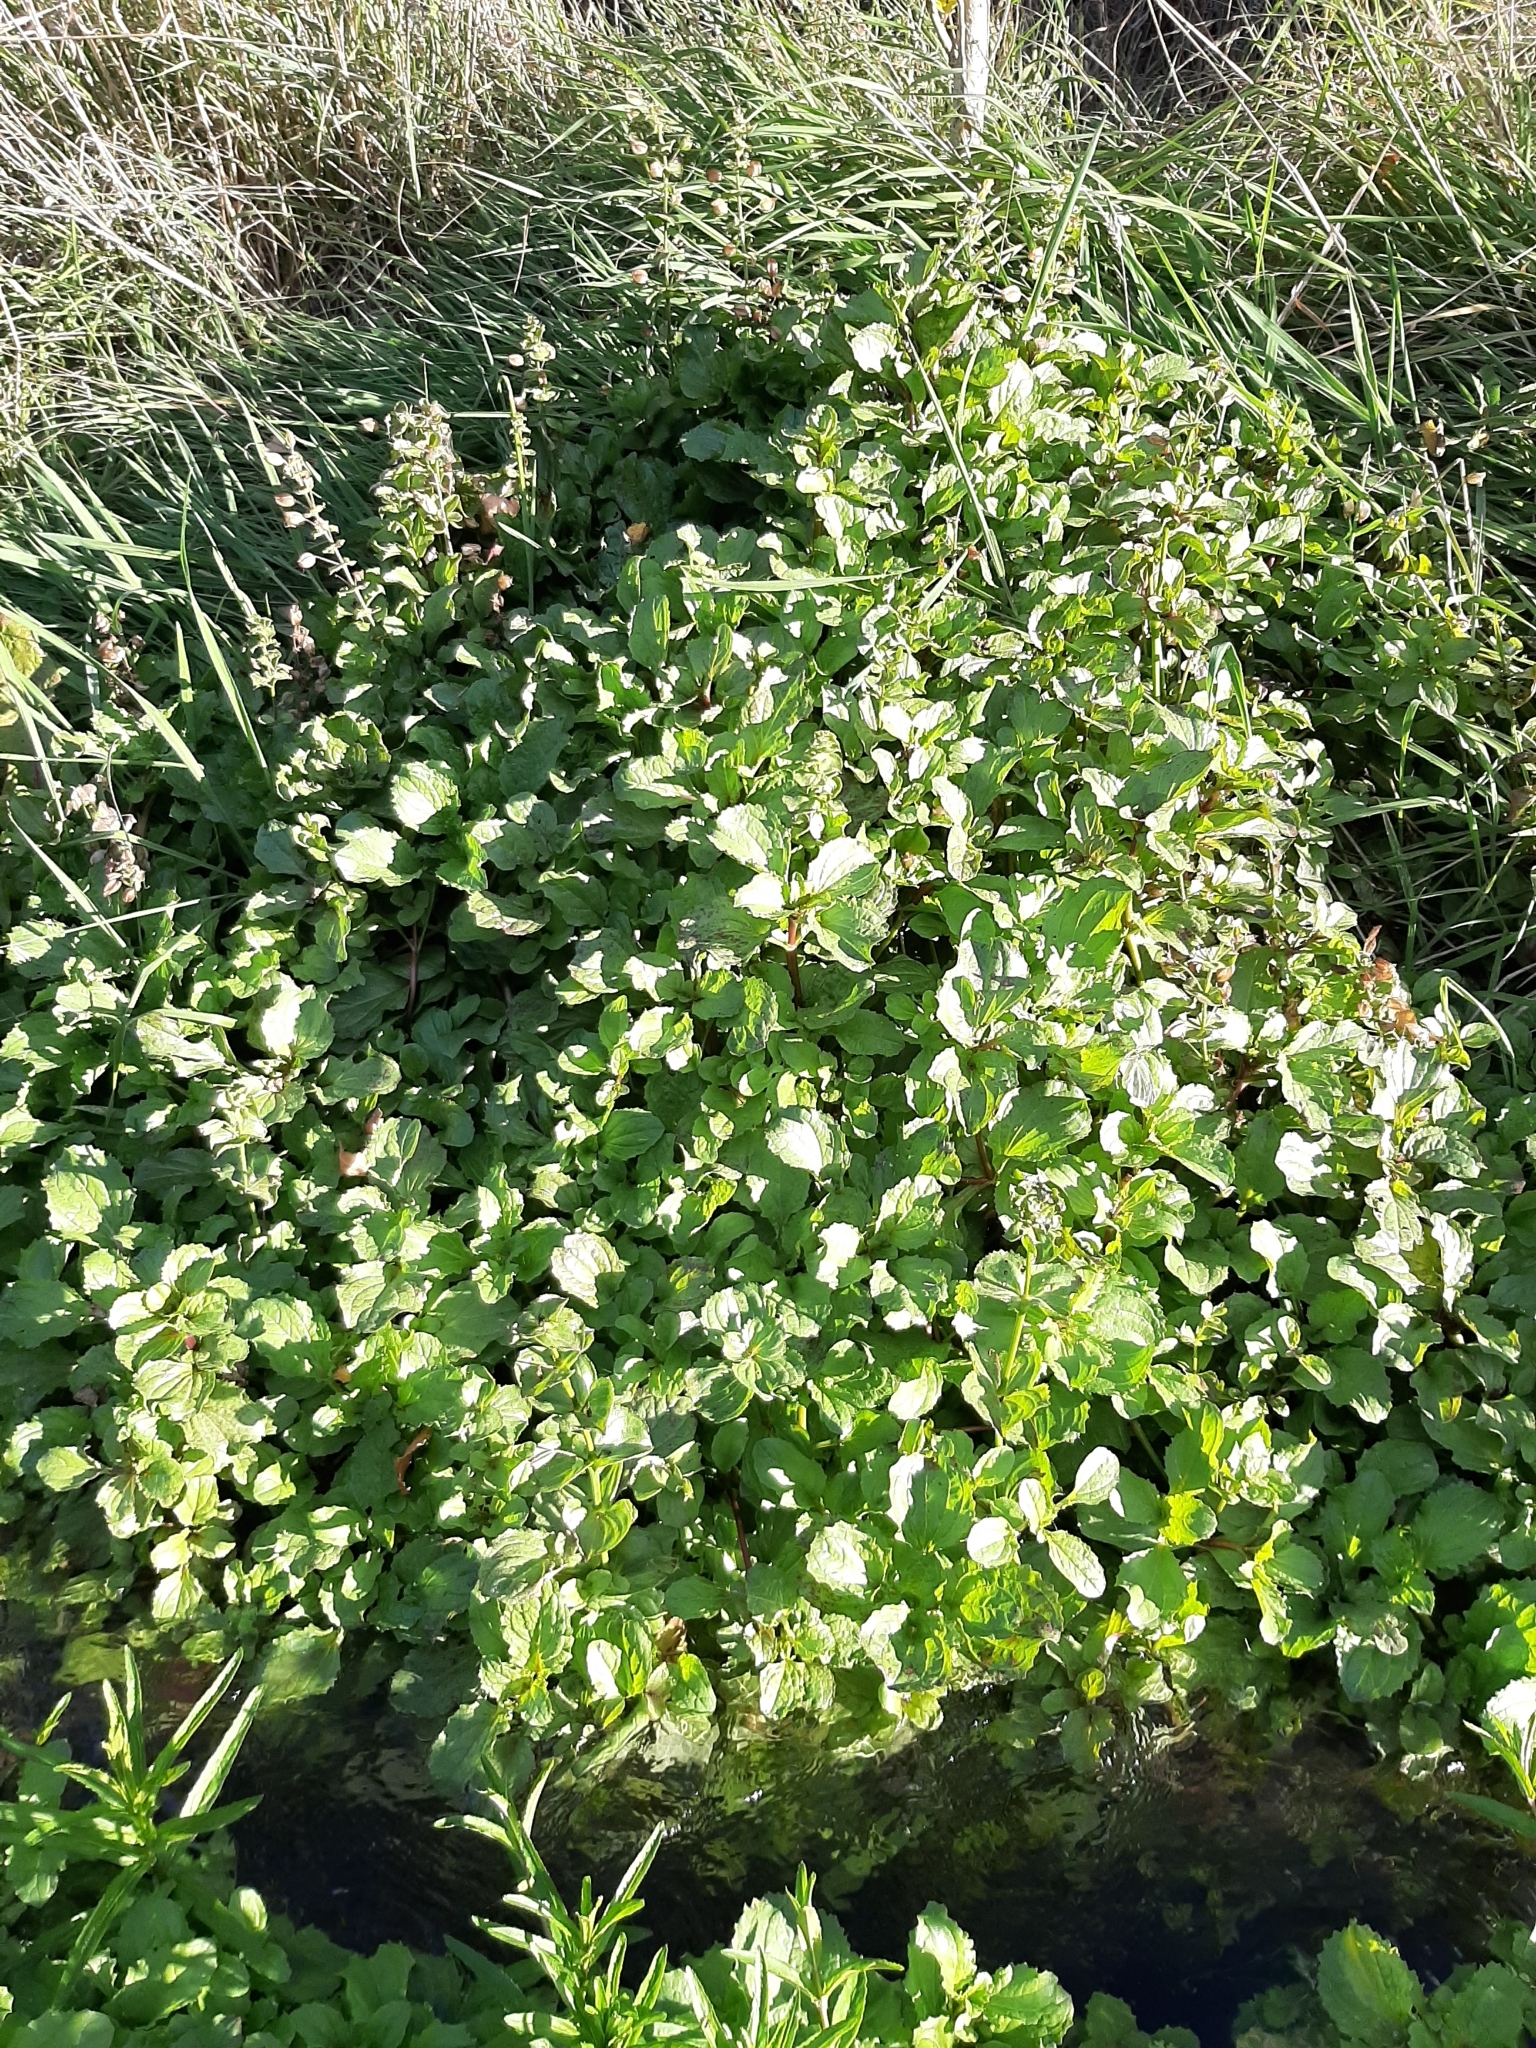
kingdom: Plantae
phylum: Tracheophyta
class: Magnoliopsida
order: Lamiales
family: Phrymaceae
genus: Erythranthe
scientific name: Erythranthe guttata
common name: Monkeyflower
